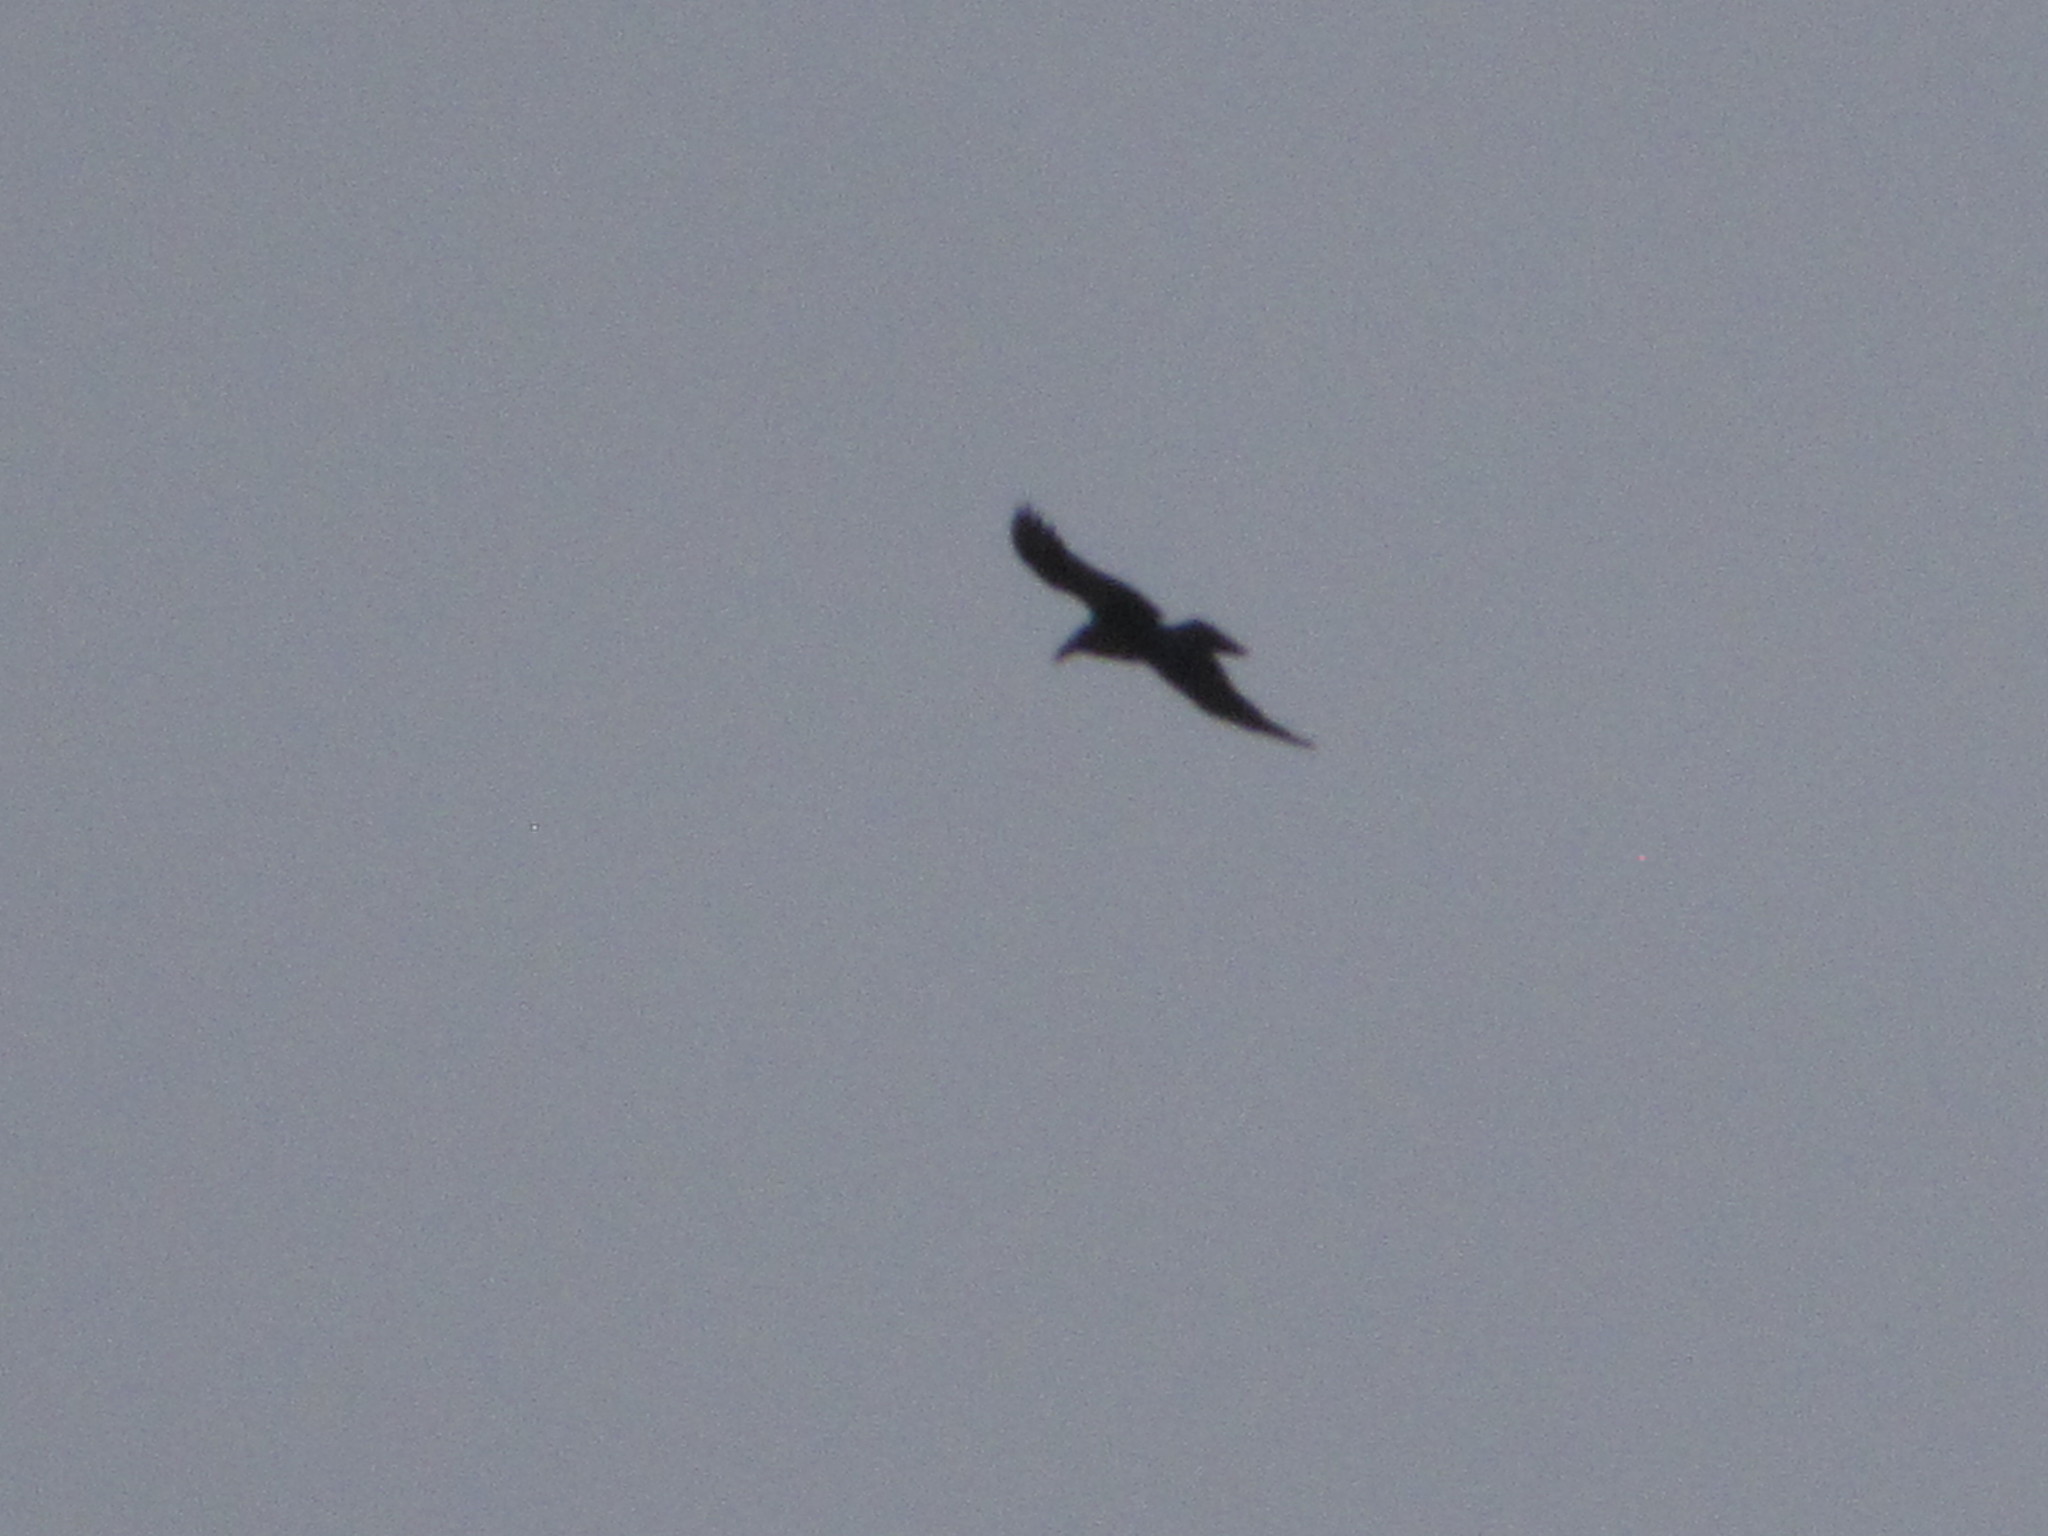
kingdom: Animalia
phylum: Chordata
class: Aves
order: Passeriformes
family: Corvidae
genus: Corvus
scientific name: Corvus corax
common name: Common raven
